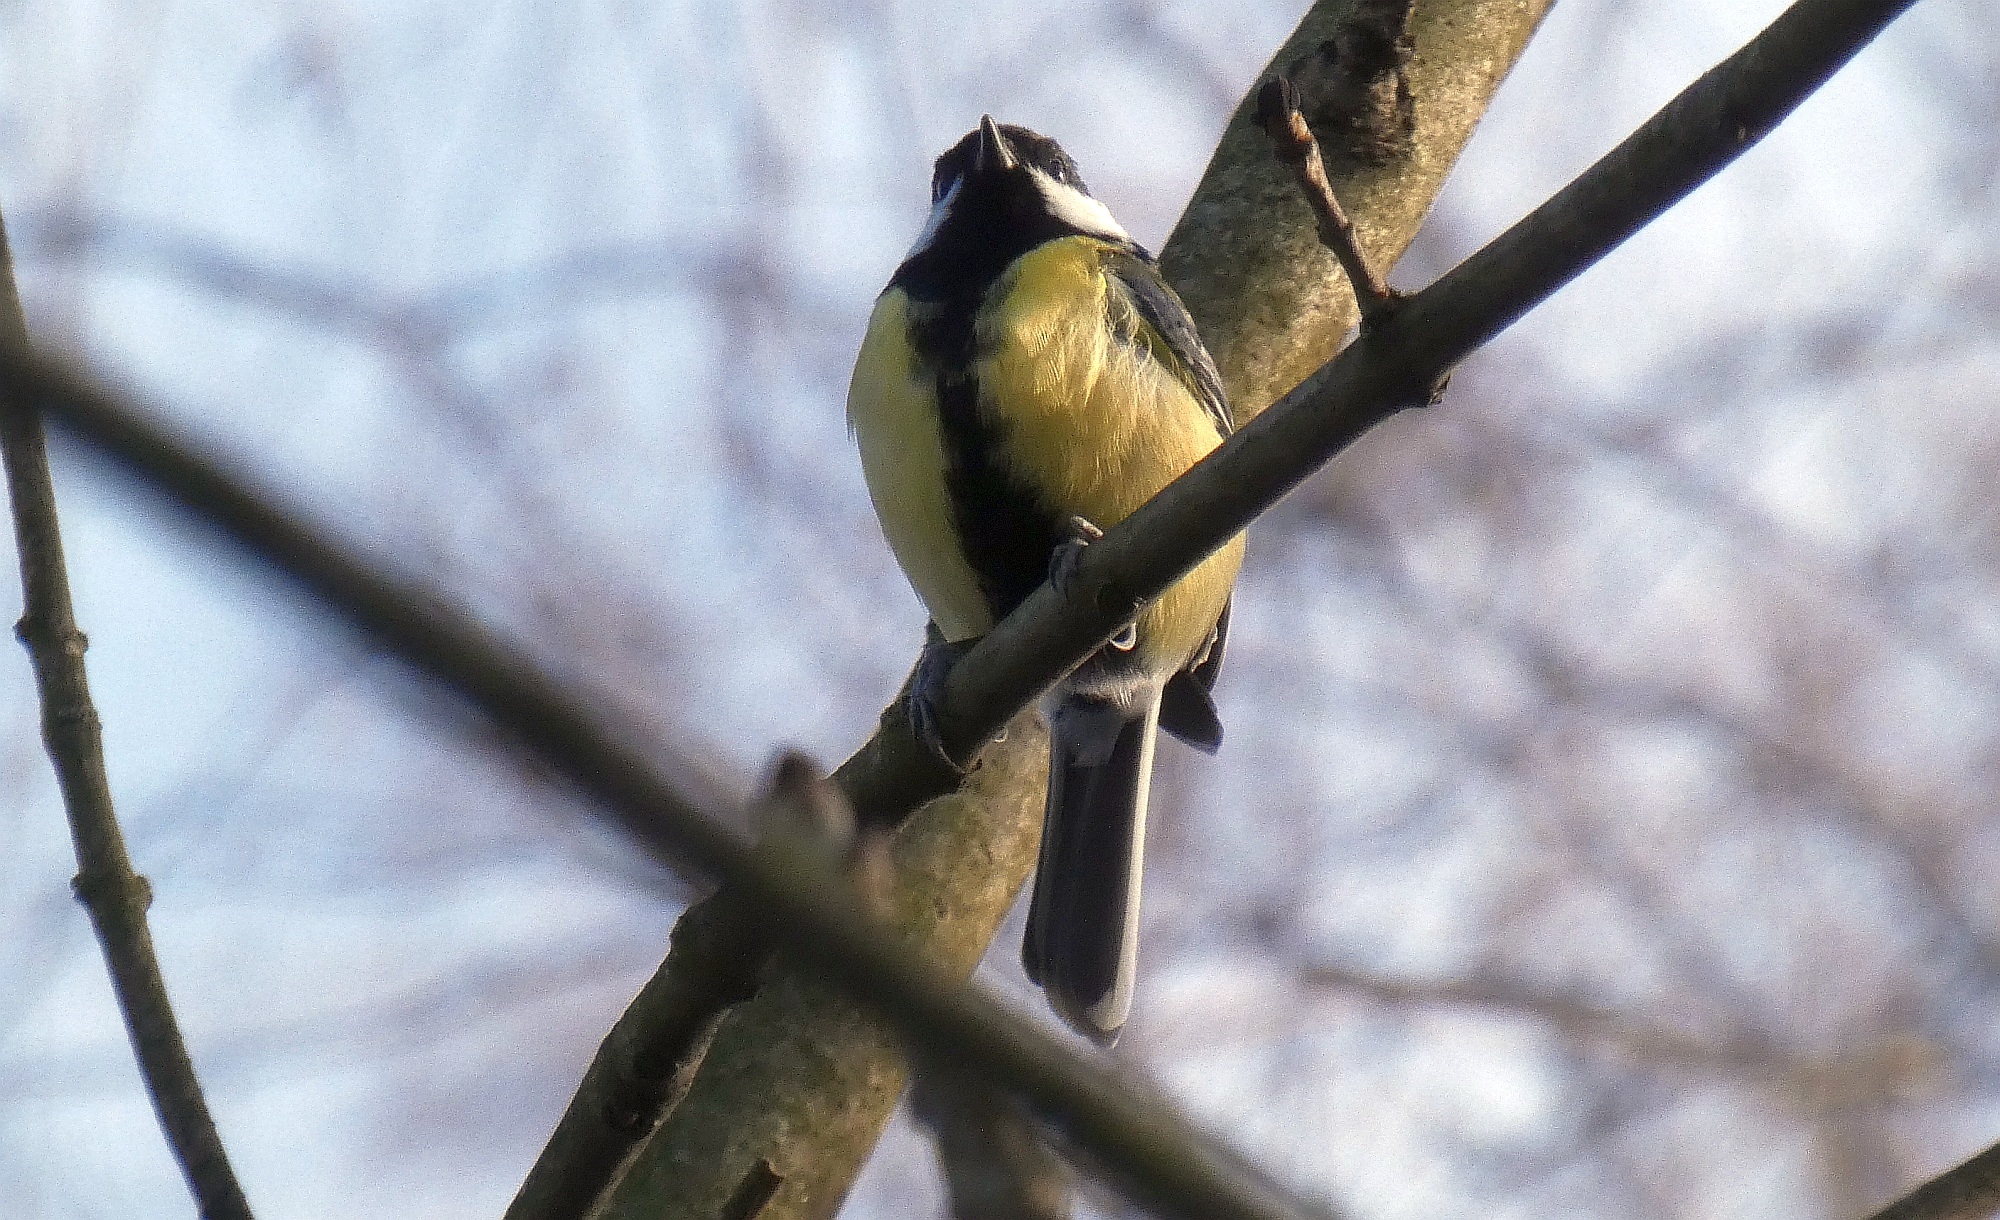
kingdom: Animalia
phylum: Chordata
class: Aves
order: Passeriformes
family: Paridae
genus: Parus
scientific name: Parus major
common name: Great tit
